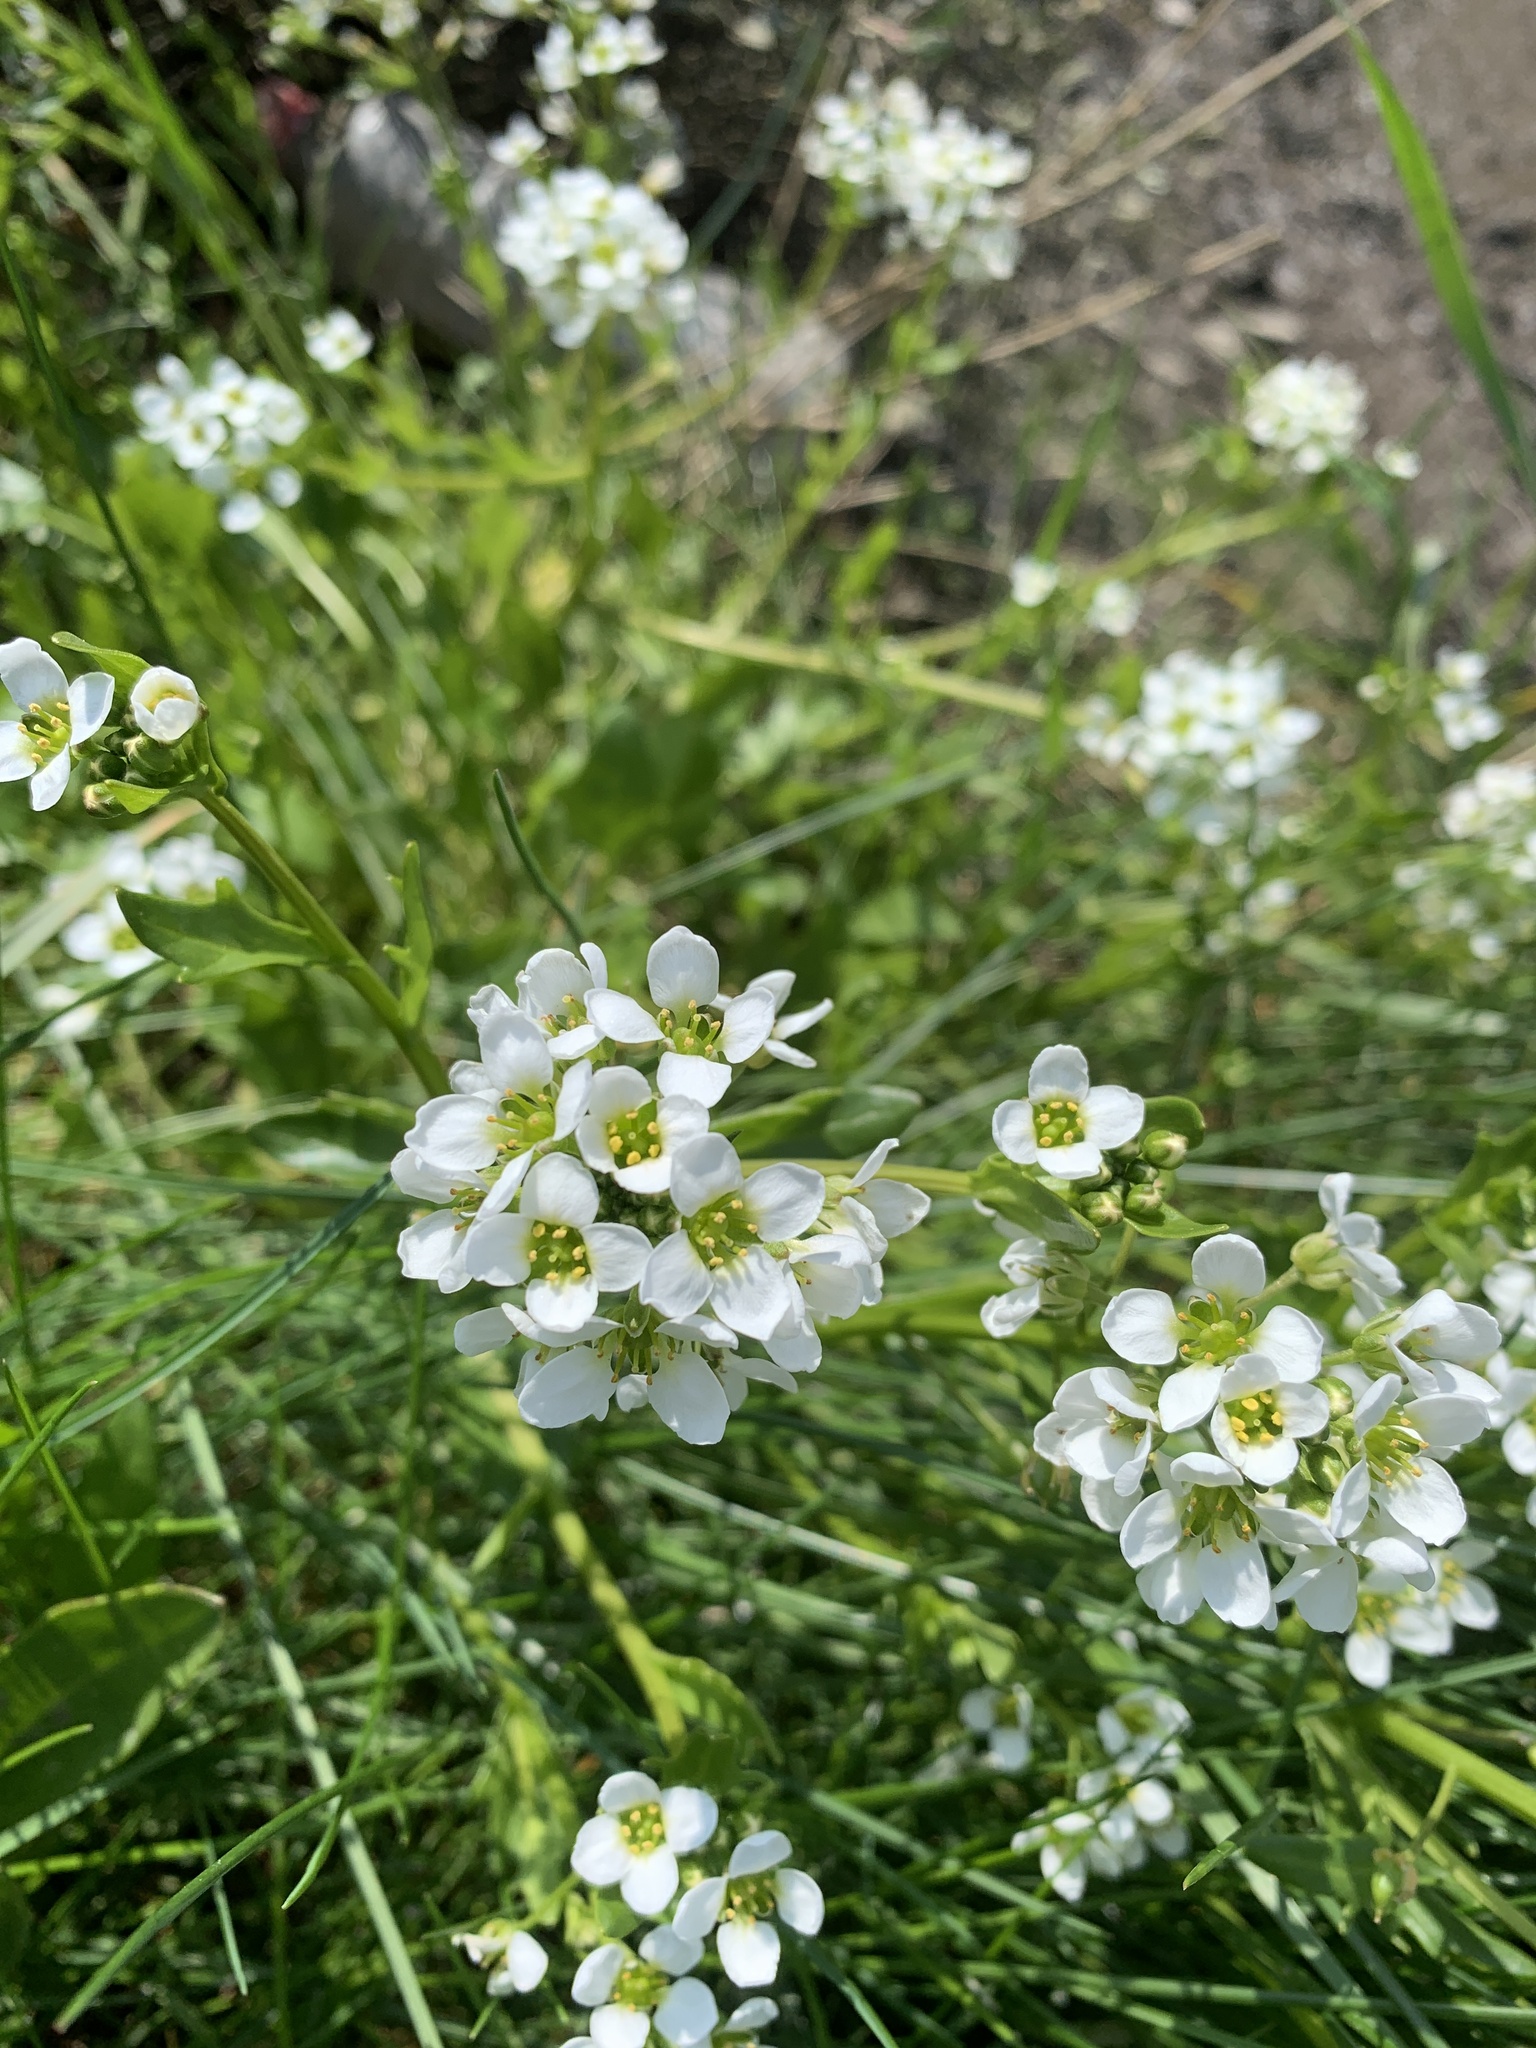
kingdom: Plantae
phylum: Tracheophyta
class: Magnoliopsida
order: Brassicales
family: Brassicaceae
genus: Cochlearia
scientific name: Cochlearia officinalis
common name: Scurvy-grass
